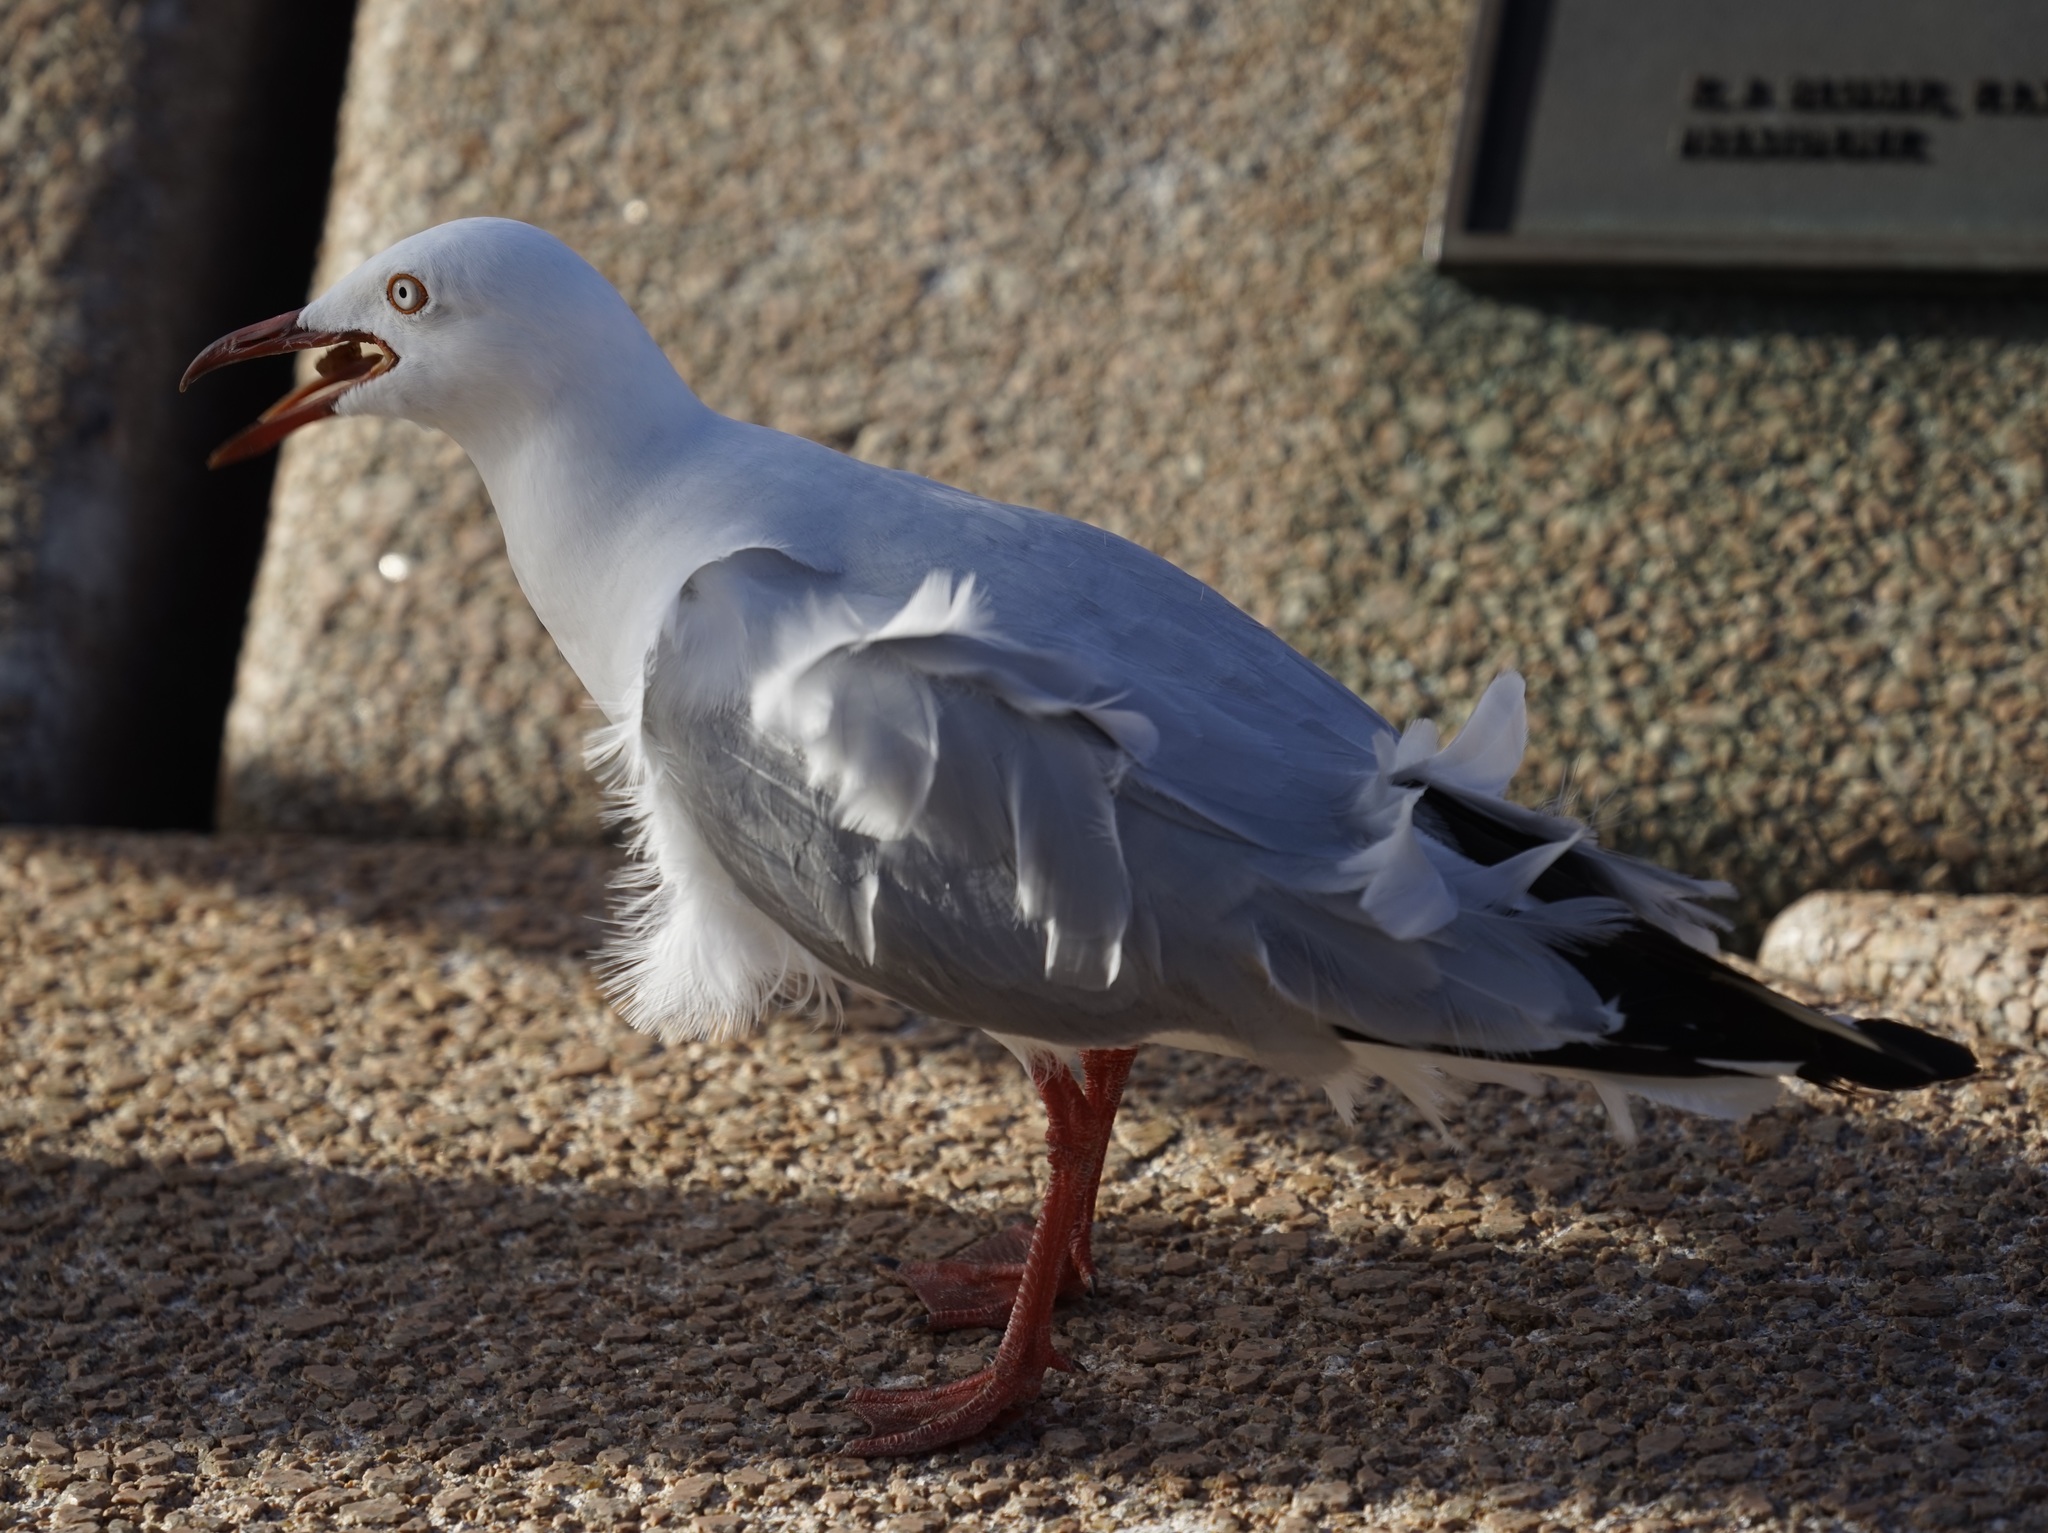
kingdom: Animalia
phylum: Chordata
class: Aves
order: Charadriiformes
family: Laridae
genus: Chroicocephalus
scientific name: Chroicocephalus novaehollandiae
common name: Silver gull
